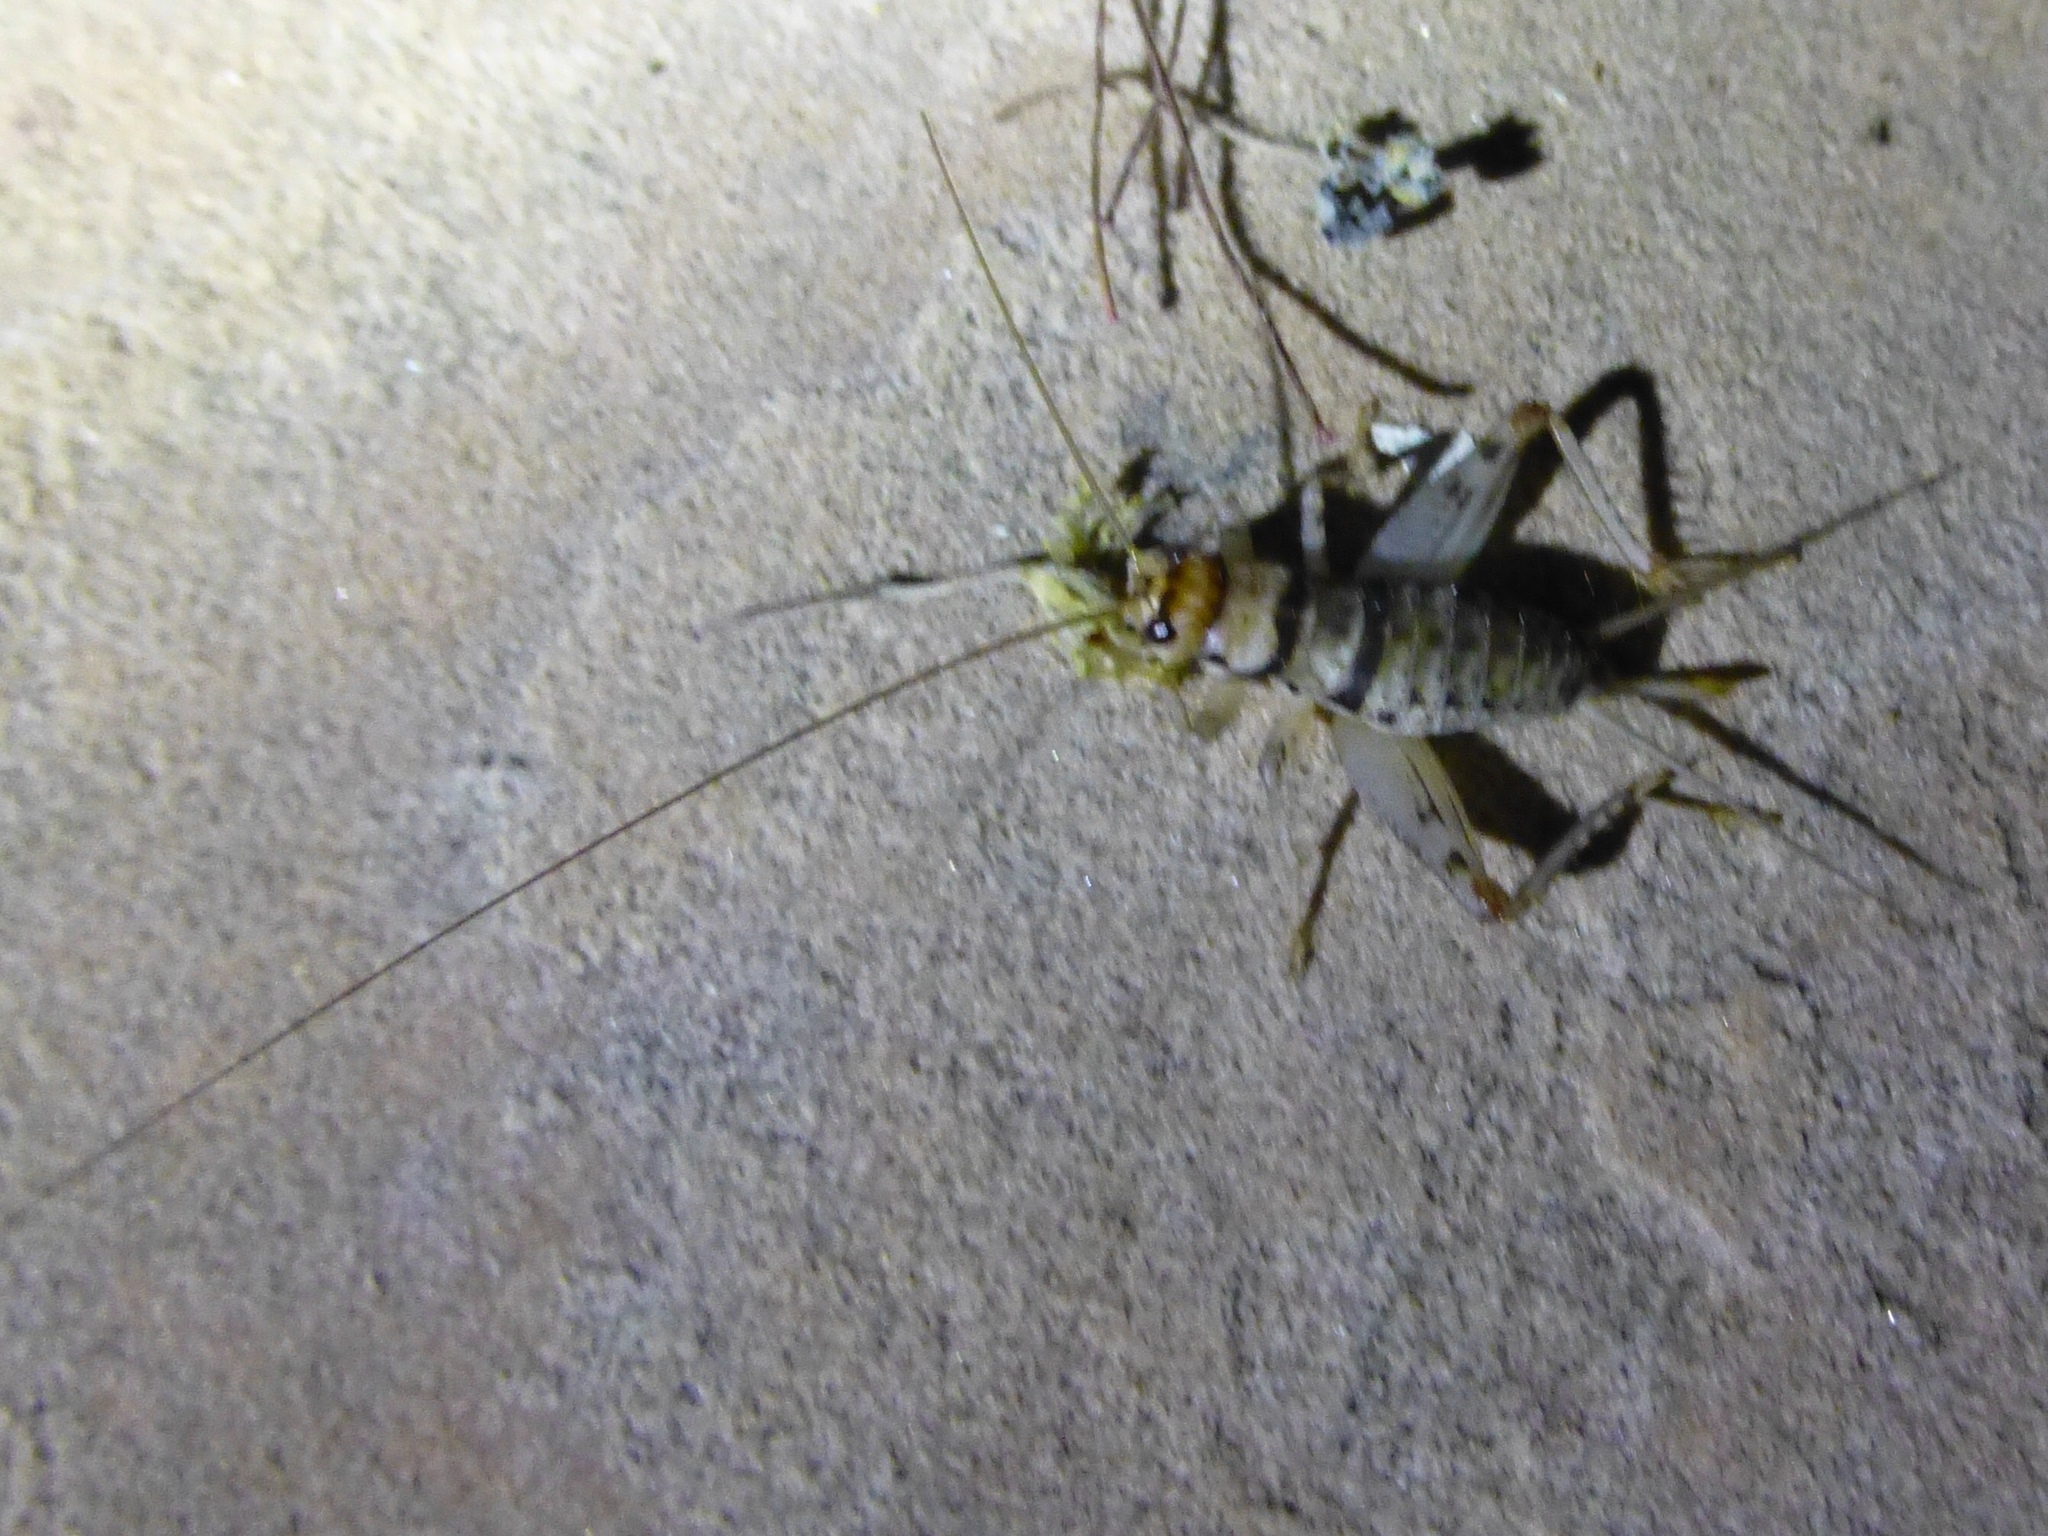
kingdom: Animalia
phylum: Arthropoda
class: Insecta
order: Orthoptera
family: Gryllidae
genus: Gryllodes
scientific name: Gryllodes sigillatus
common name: Tropical house cricket
